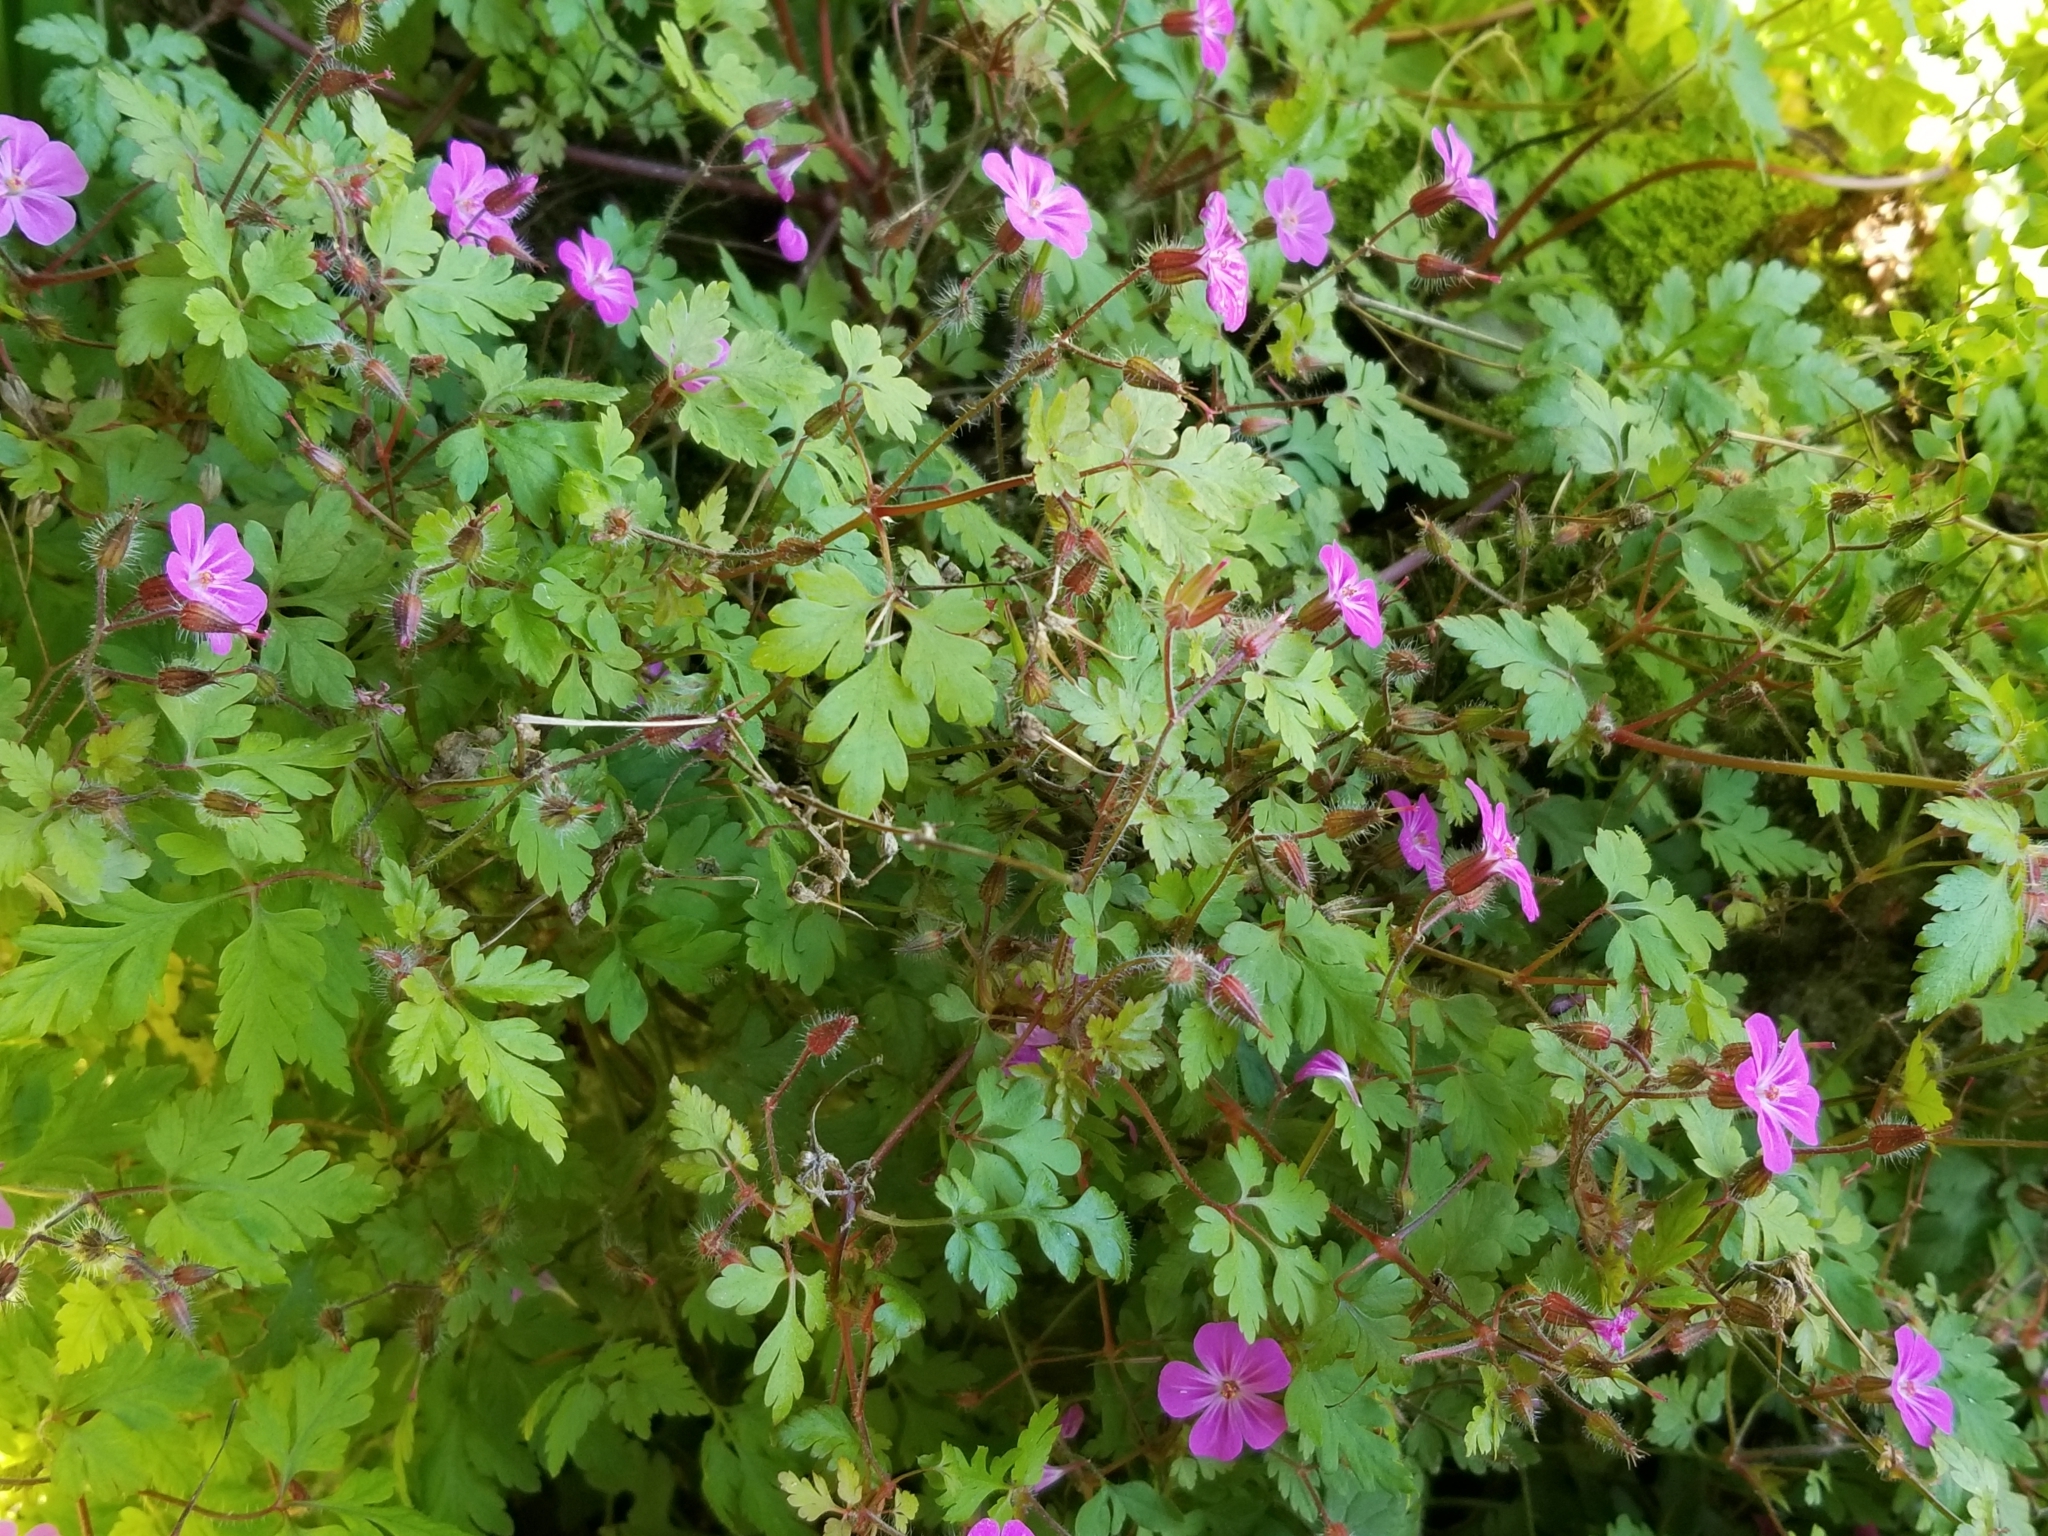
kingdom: Plantae
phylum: Tracheophyta
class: Magnoliopsida
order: Geraniales
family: Geraniaceae
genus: Geranium
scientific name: Geranium robertianum
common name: Herb-robert
